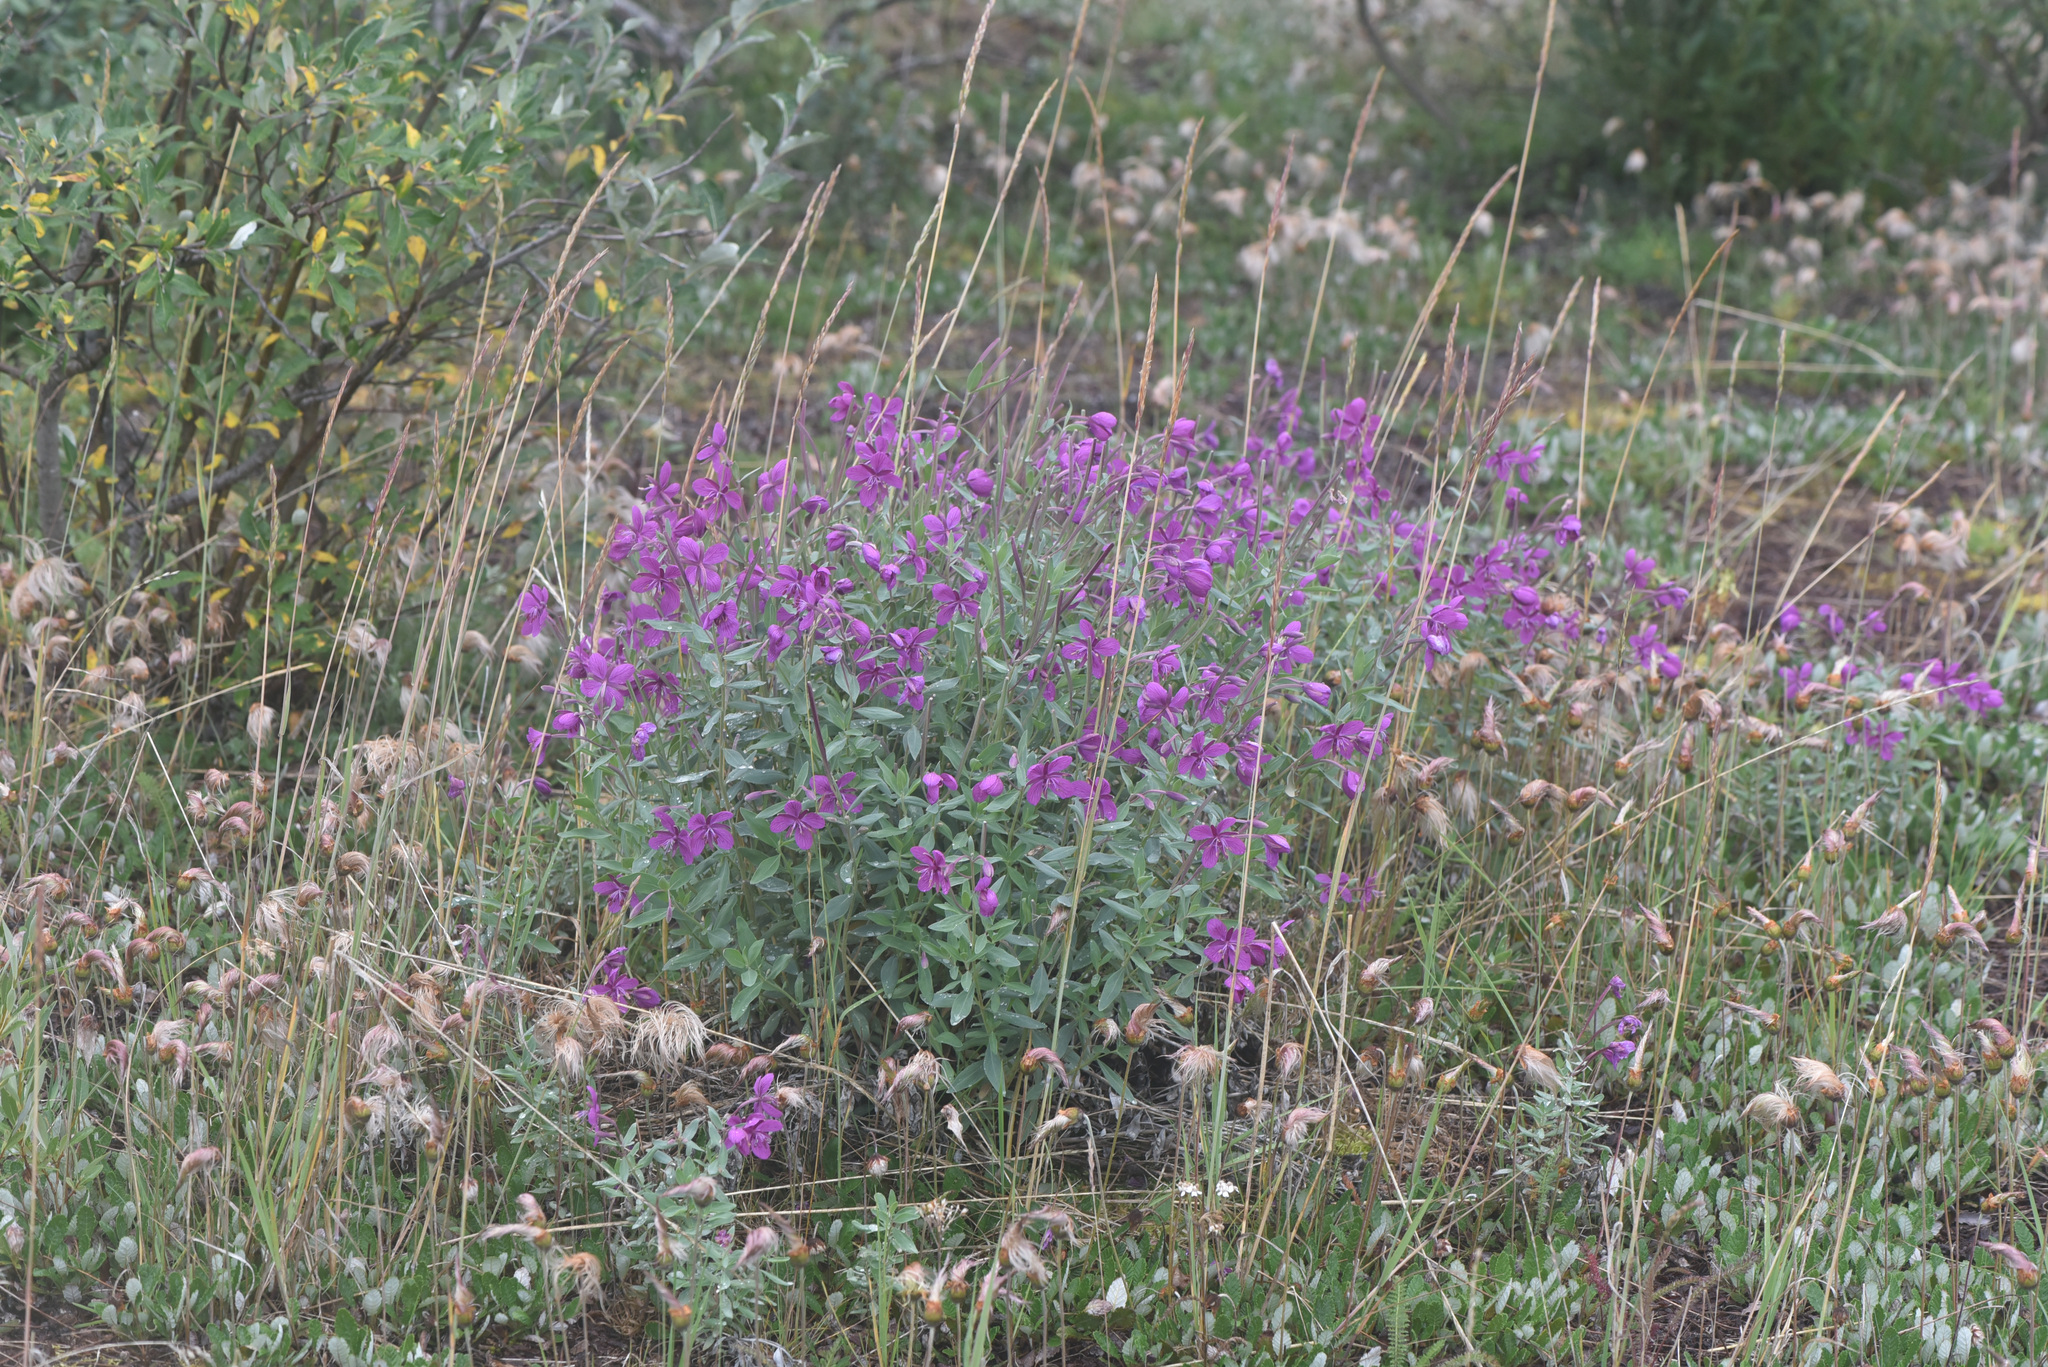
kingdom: Plantae
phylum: Tracheophyta
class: Magnoliopsida
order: Myrtales
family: Onagraceae
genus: Chamaenerion
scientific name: Chamaenerion latifolium
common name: Dwarf fireweed
